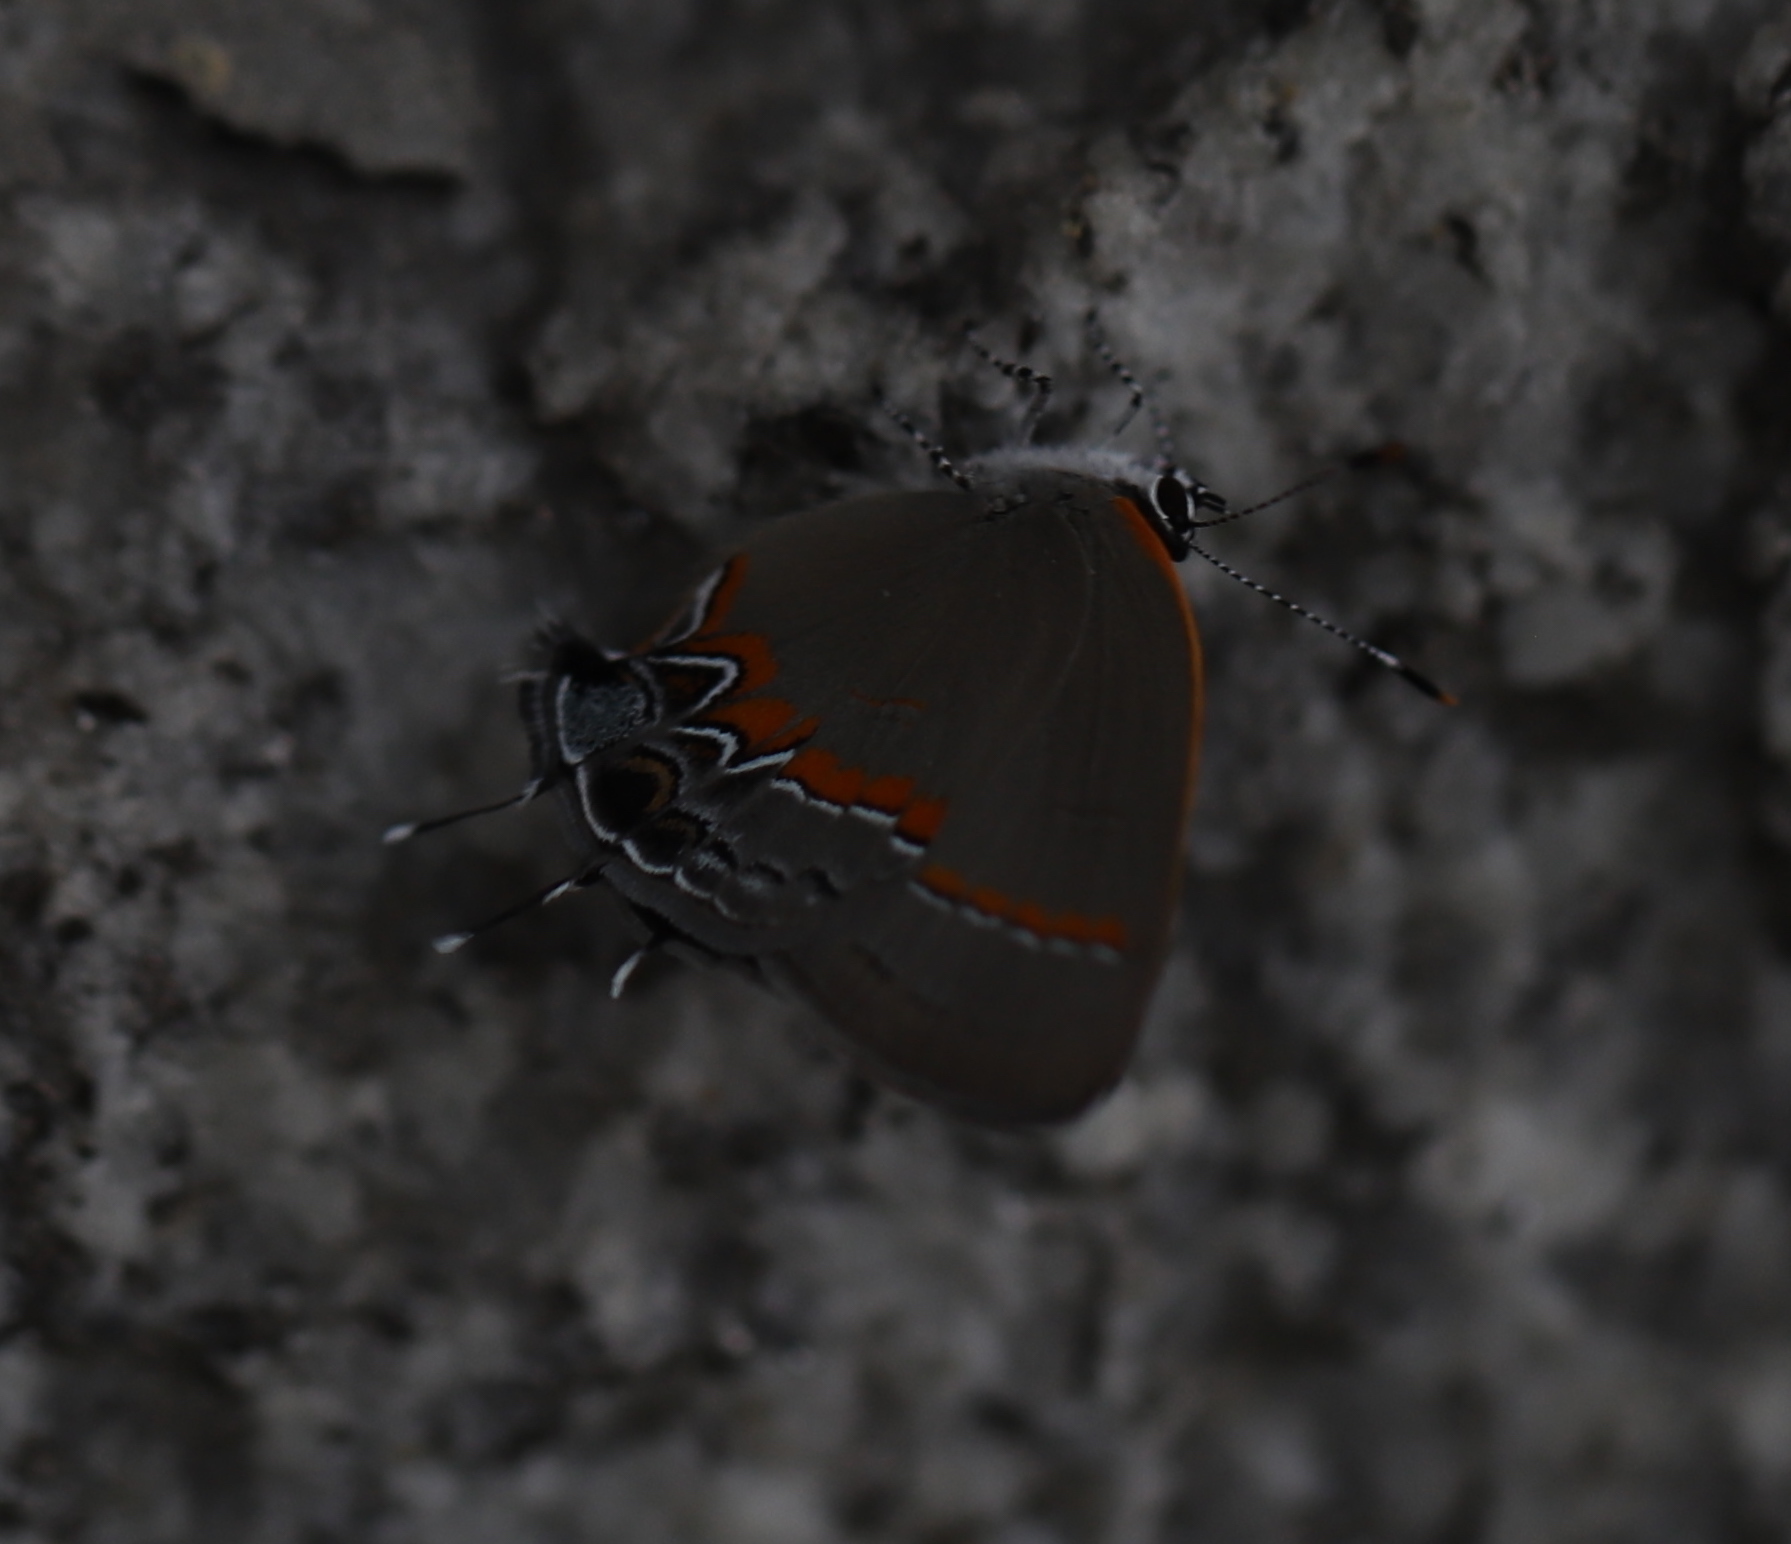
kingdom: Animalia
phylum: Arthropoda
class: Insecta
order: Lepidoptera
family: Lycaenidae
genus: Calycopis
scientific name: Calycopis cecrops
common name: Red-banded hairstreak
